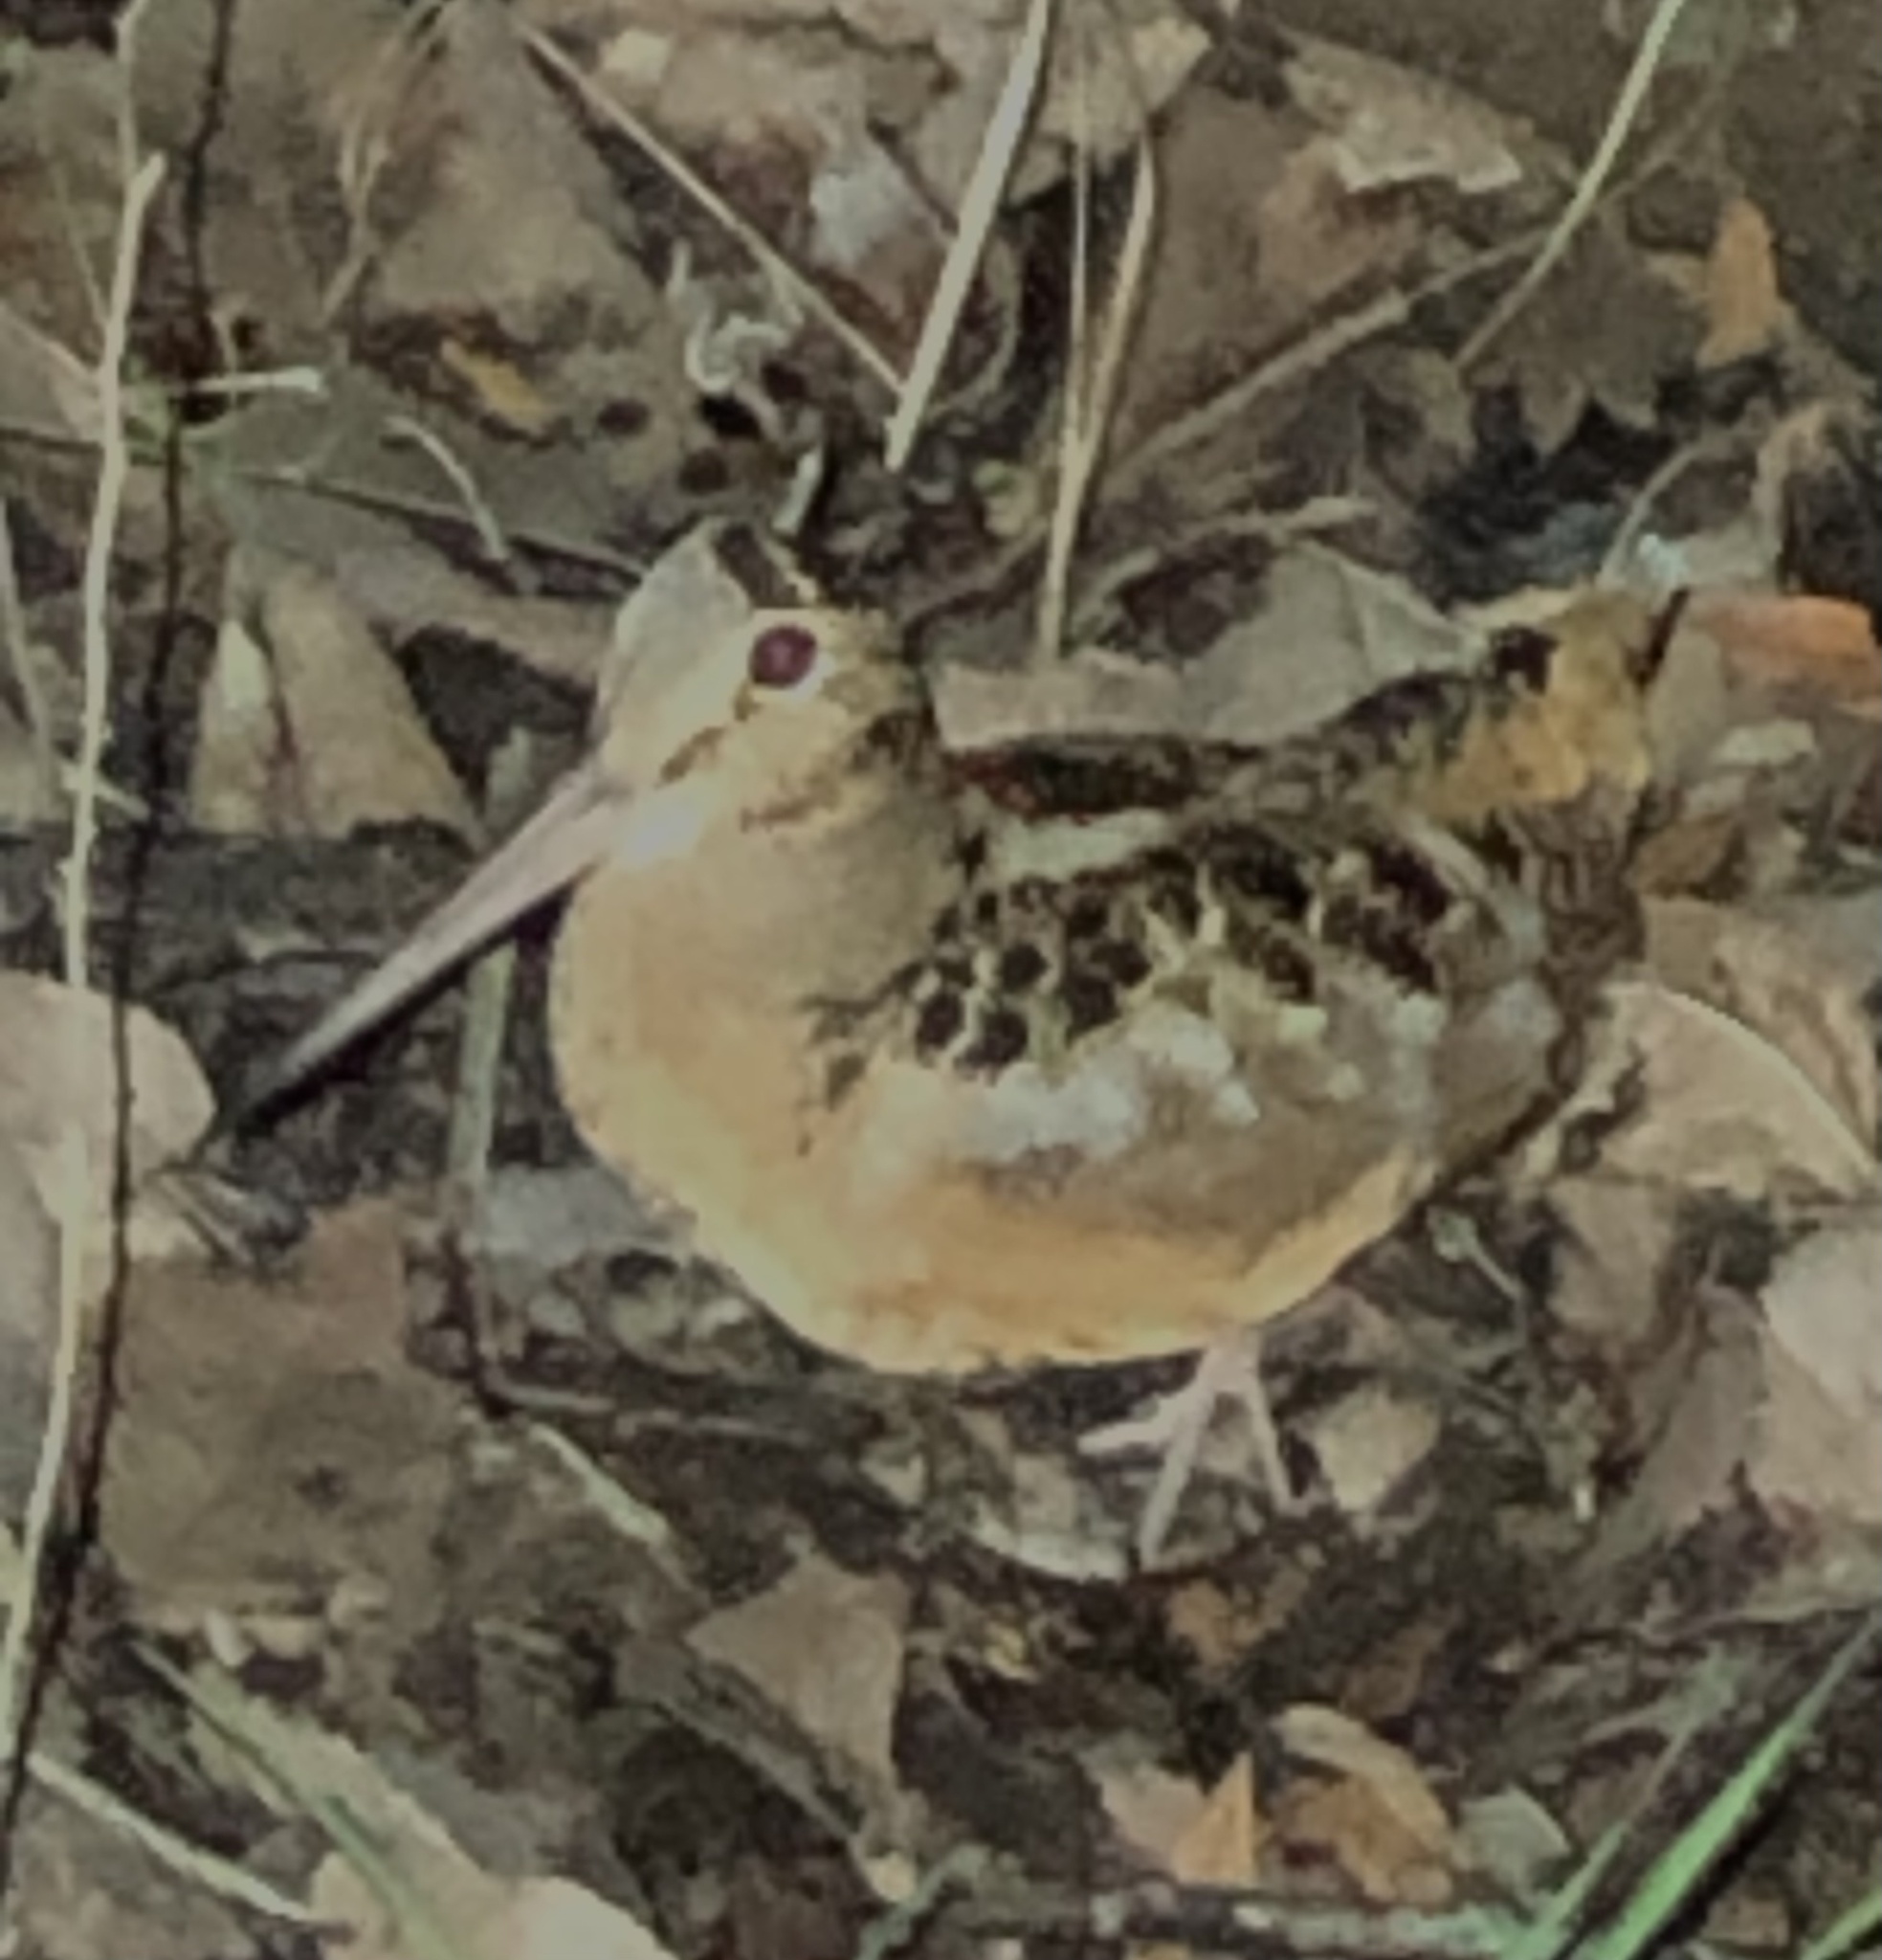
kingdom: Animalia
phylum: Chordata
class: Aves
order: Charadriiformes
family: Scolopacidae
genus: Scolopax
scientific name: Scolopax minor
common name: American woodcock
